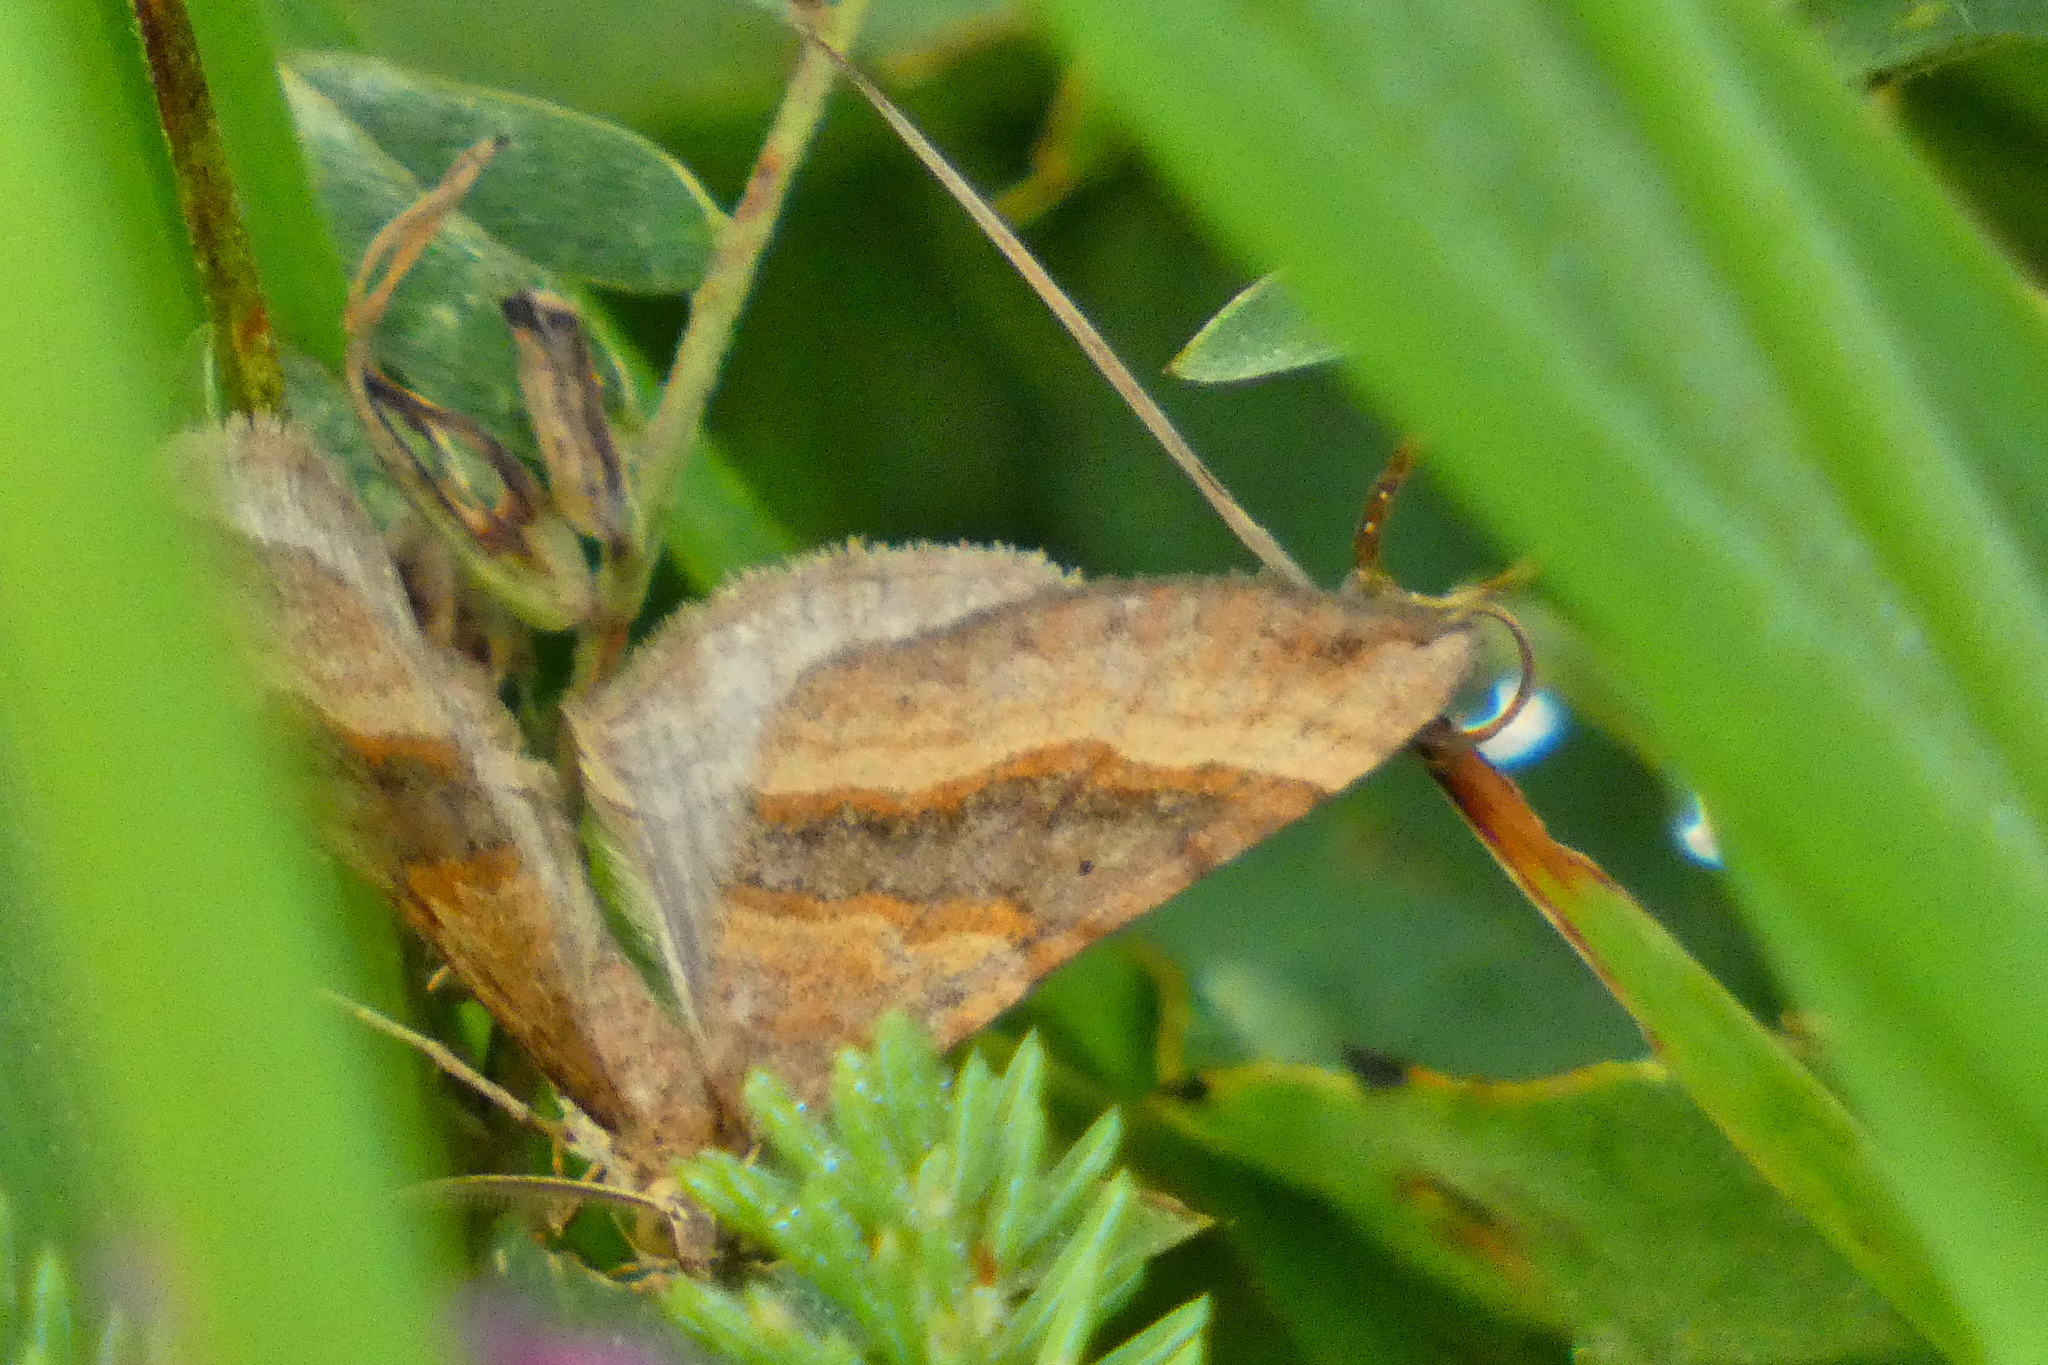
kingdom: Animalia
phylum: Arthropoda
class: Insecta
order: Lepidoptera
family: Geometridae
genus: Scotopteryx
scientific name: Scotopteryx chenopodiata
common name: Shaded broad-bar
